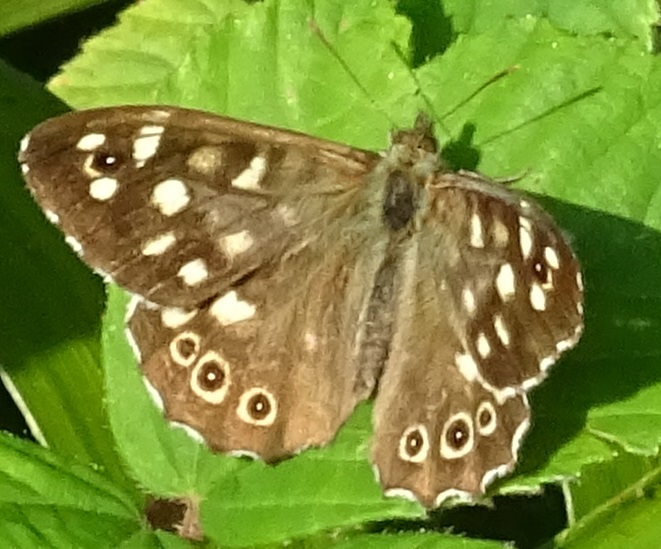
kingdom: Animalia
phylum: Arthropoda
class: Insecta
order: Lepidoptera
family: Nymphalidae
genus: Pararge
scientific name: Pararge aegeria
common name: Speckled wood
